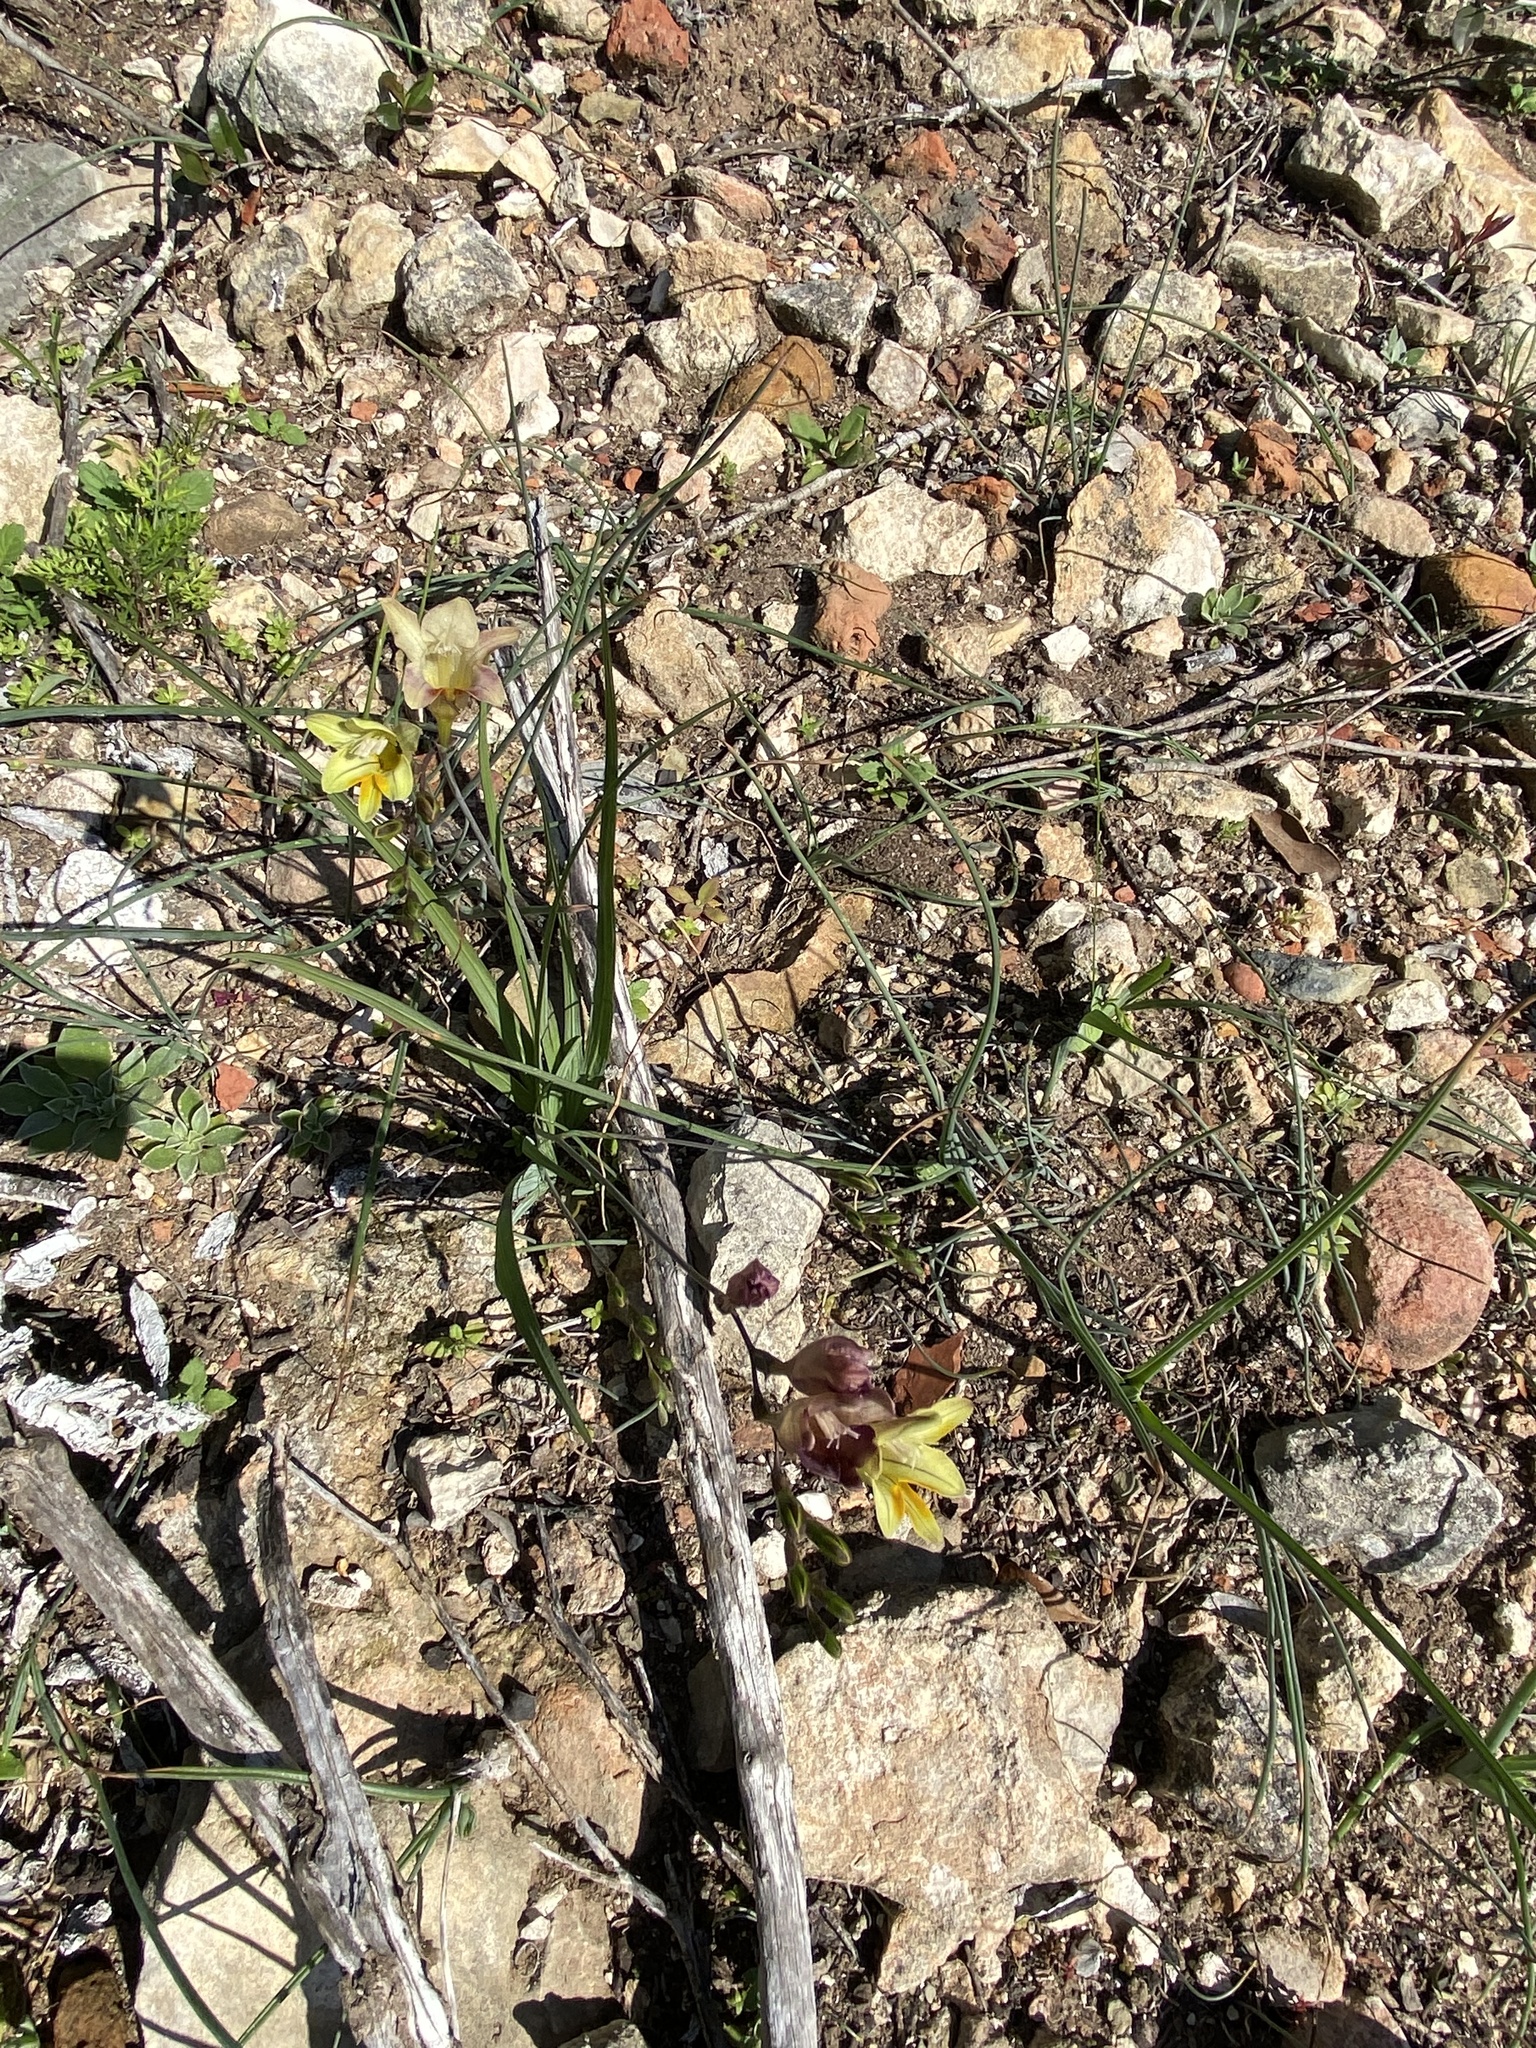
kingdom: Plantae
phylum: Tracheophyta
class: Liliopsida
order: Asparagales
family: Iridaceae
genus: Freesia
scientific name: Freesia refracta
